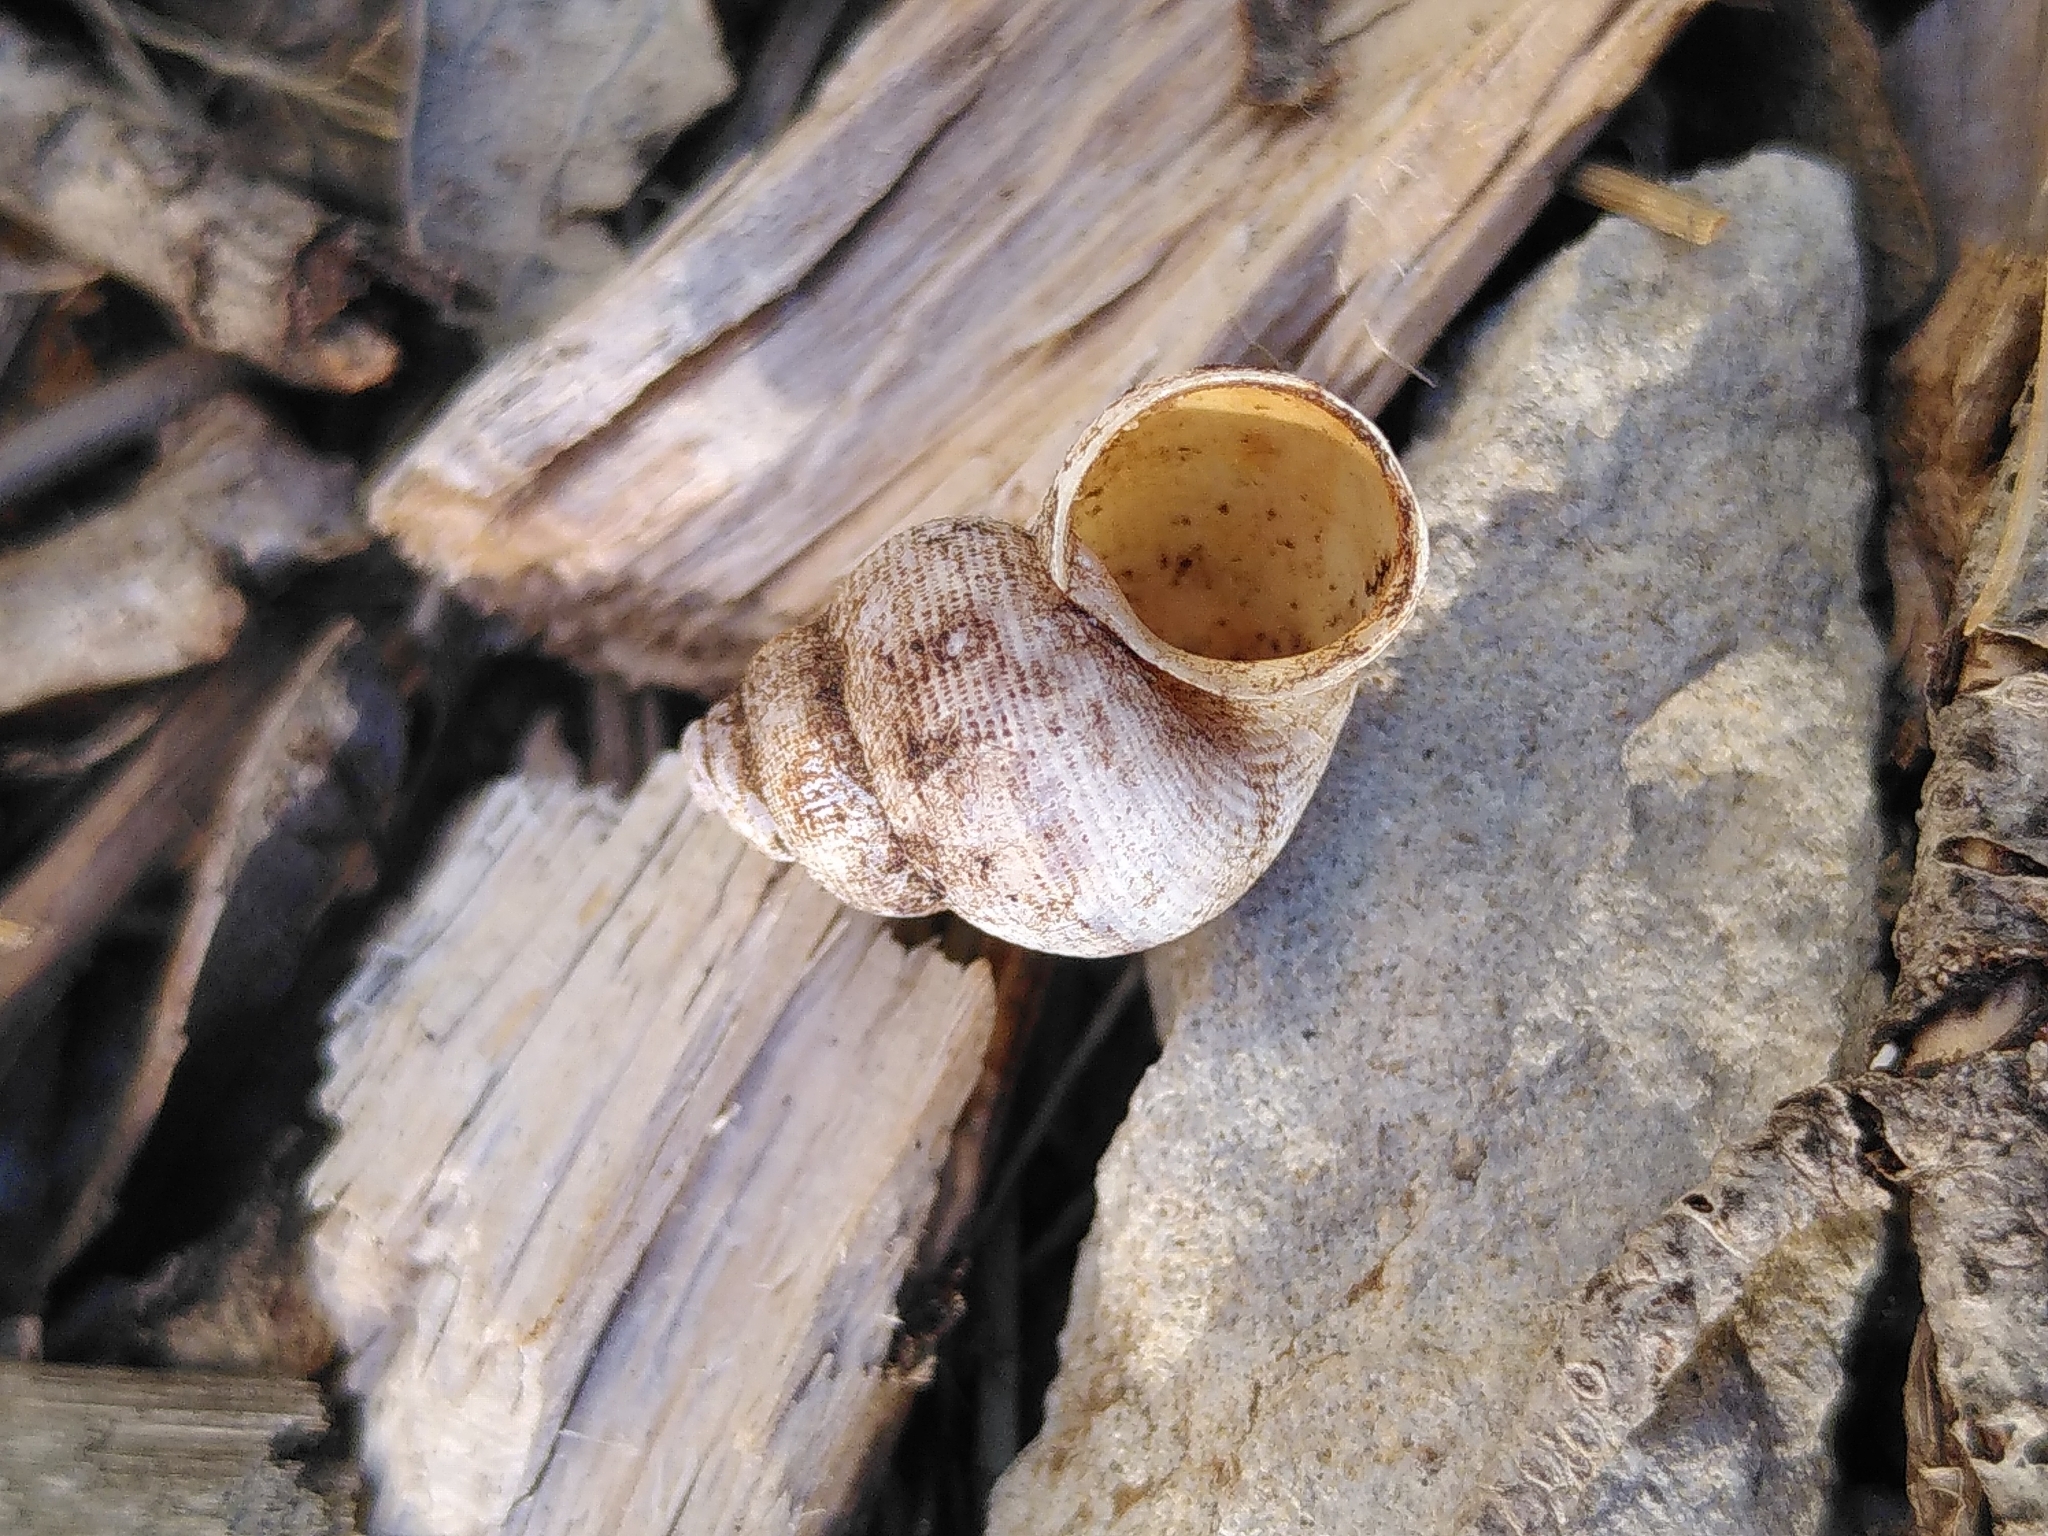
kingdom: Animalia
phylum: Mollusca
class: Gastropoda
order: Littorinimorpha
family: Pomatiidae
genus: Pomatias
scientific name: Pomatias elegans
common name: Red-mouthed snail
